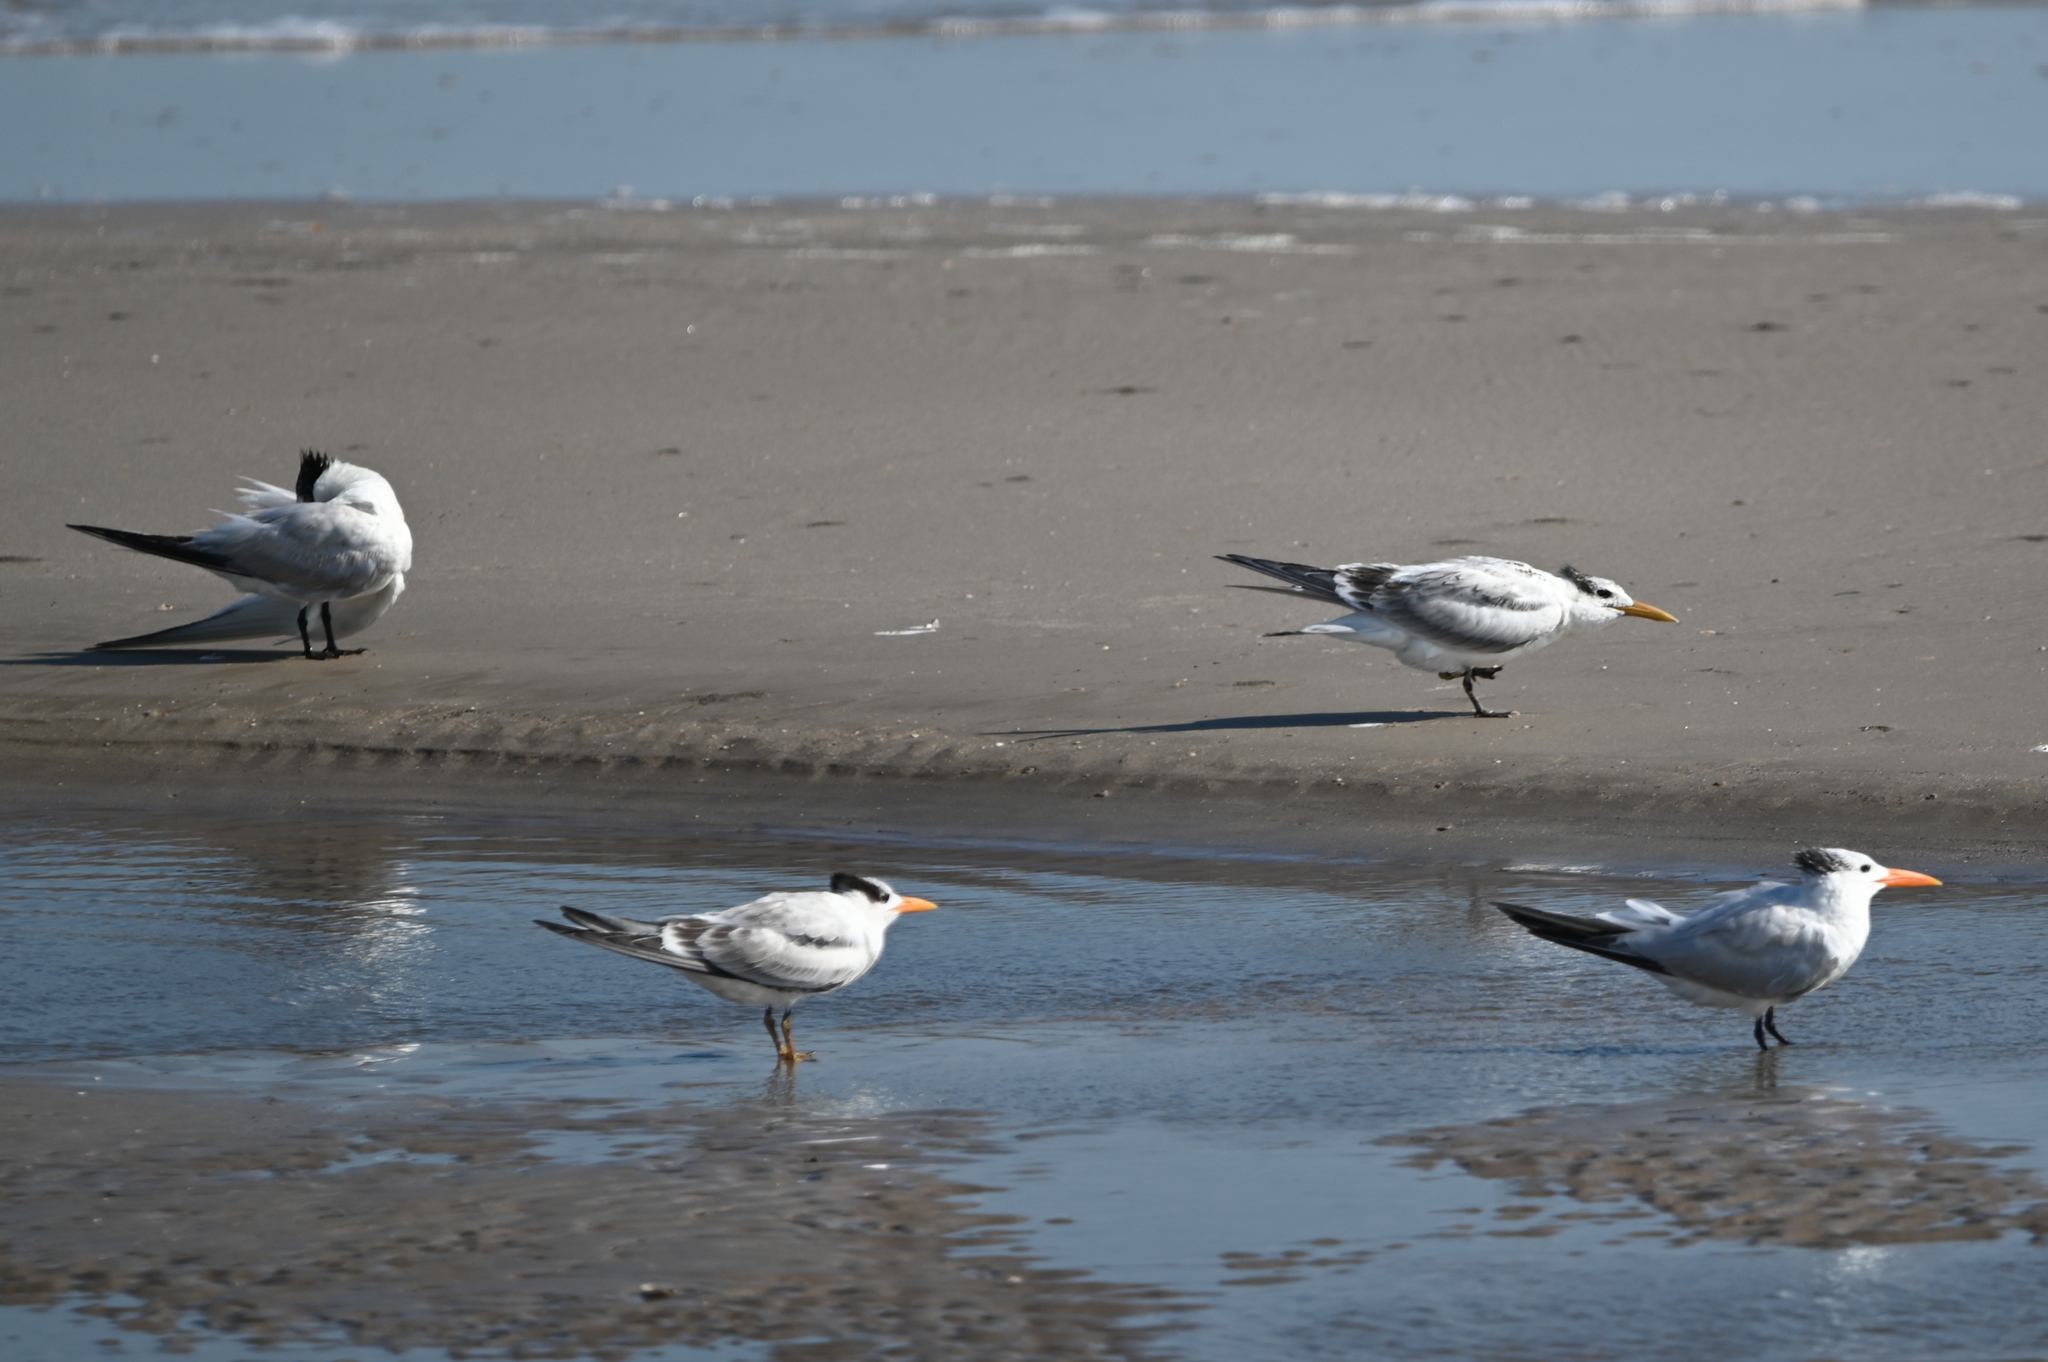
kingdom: Animalia
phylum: Chordata
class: Aves
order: Charadriiformes
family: Laridae
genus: Thalasseus
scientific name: Thalasseus maximus
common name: Royal tern
